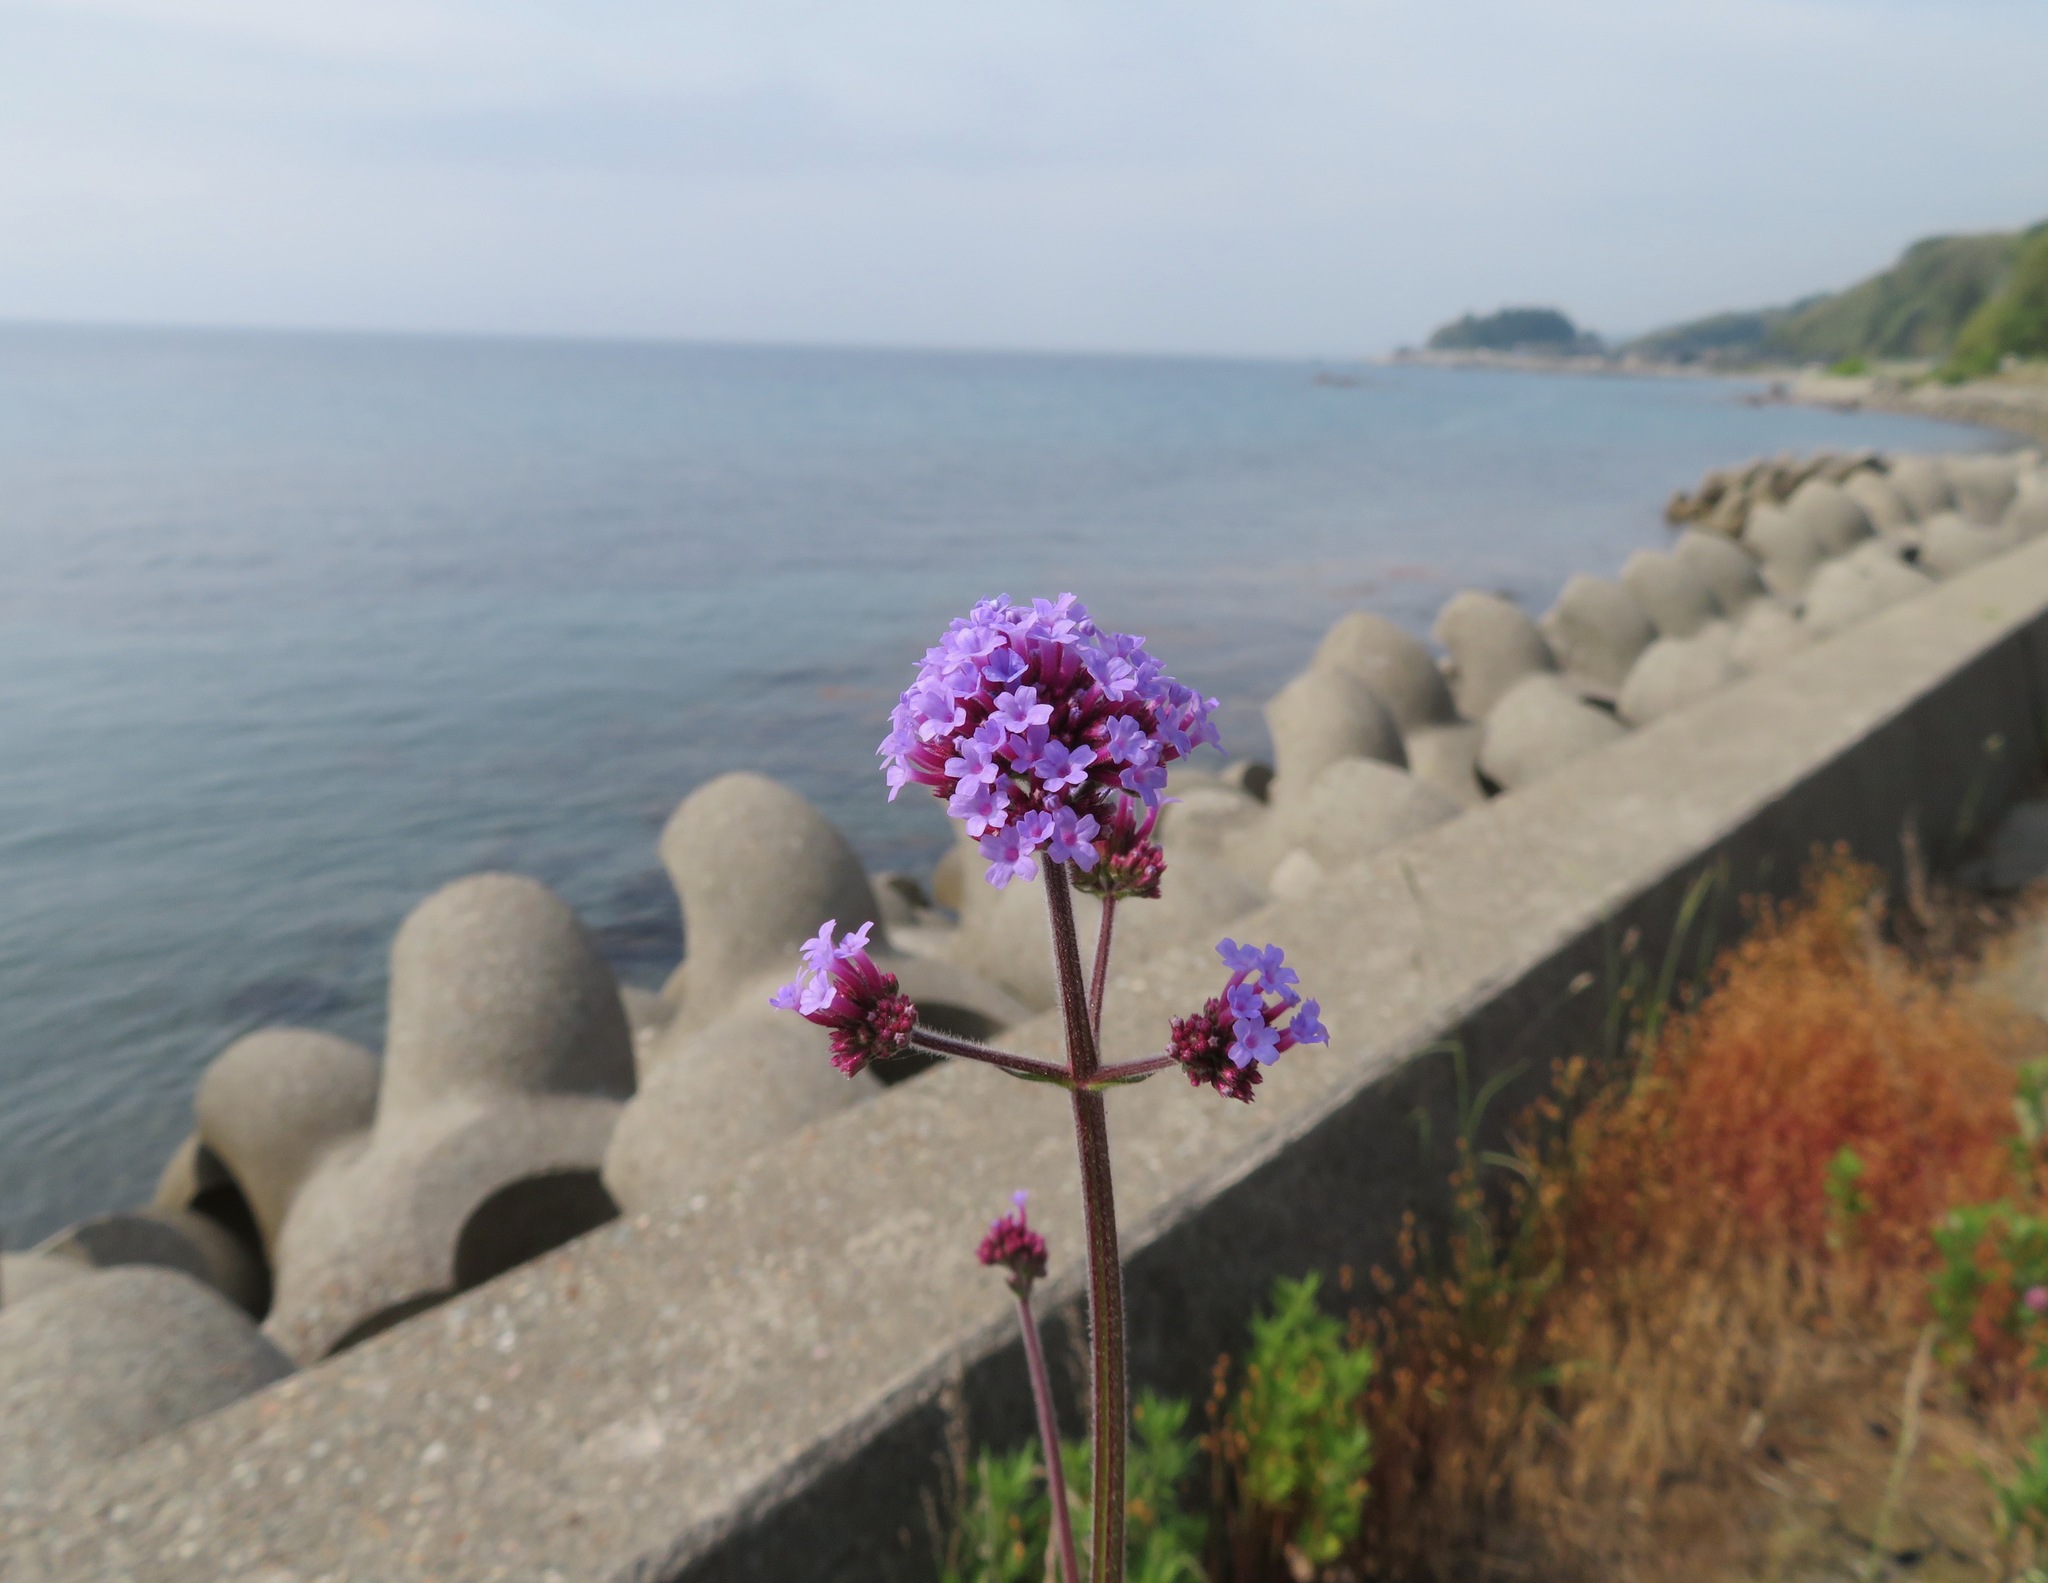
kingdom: Plantae
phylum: Tracheophyta
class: Magnoliopsida
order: Lamiales
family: Verbenaceae
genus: Verbena
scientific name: Verbena bonariensis
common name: Purpletop vervain
